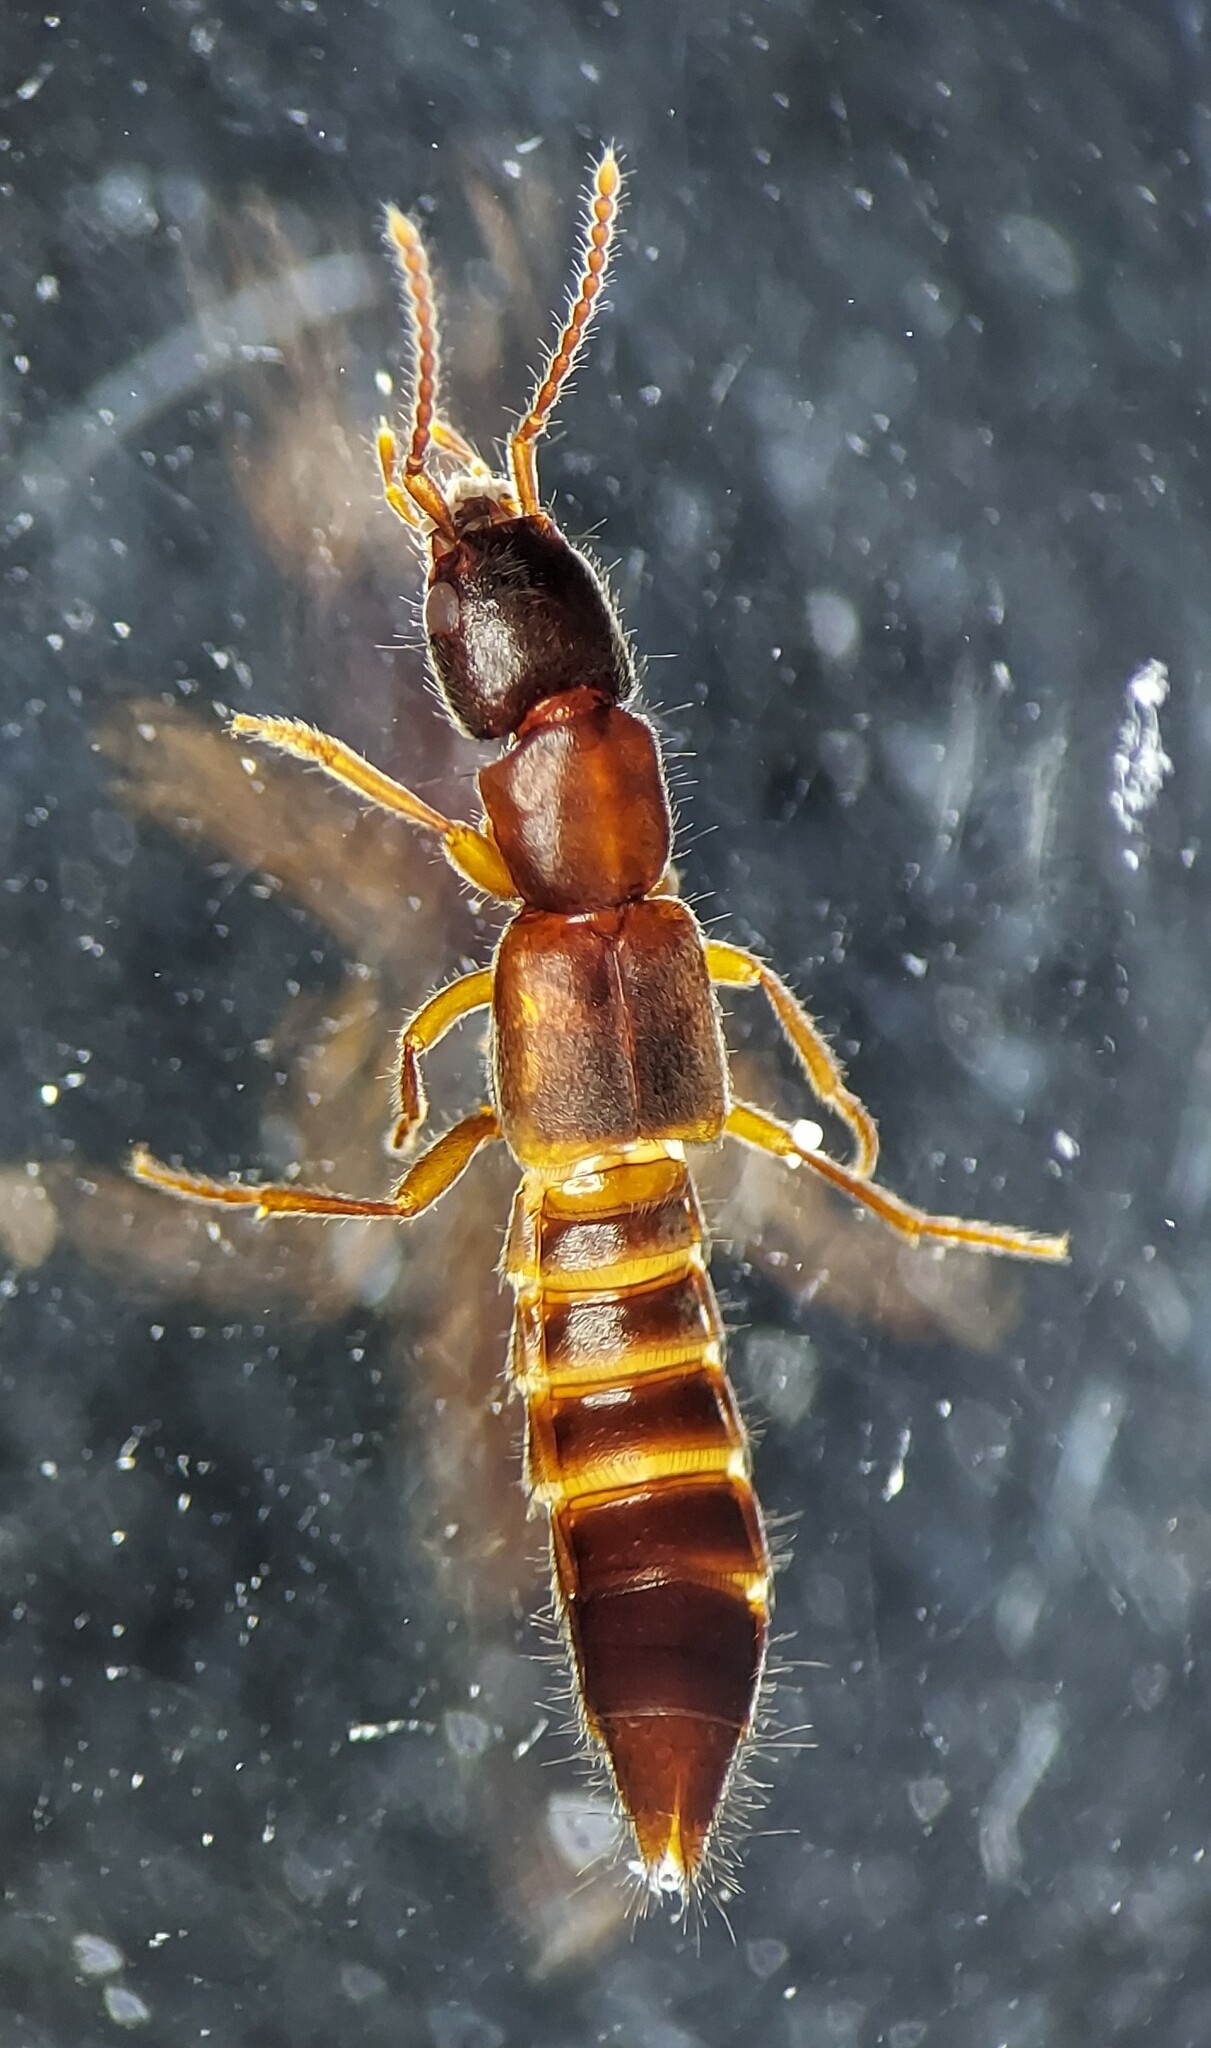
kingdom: Animalia
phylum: Arthropoda
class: Insecta
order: Coleoptera
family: Staphylinidae
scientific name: Staphylinidae
